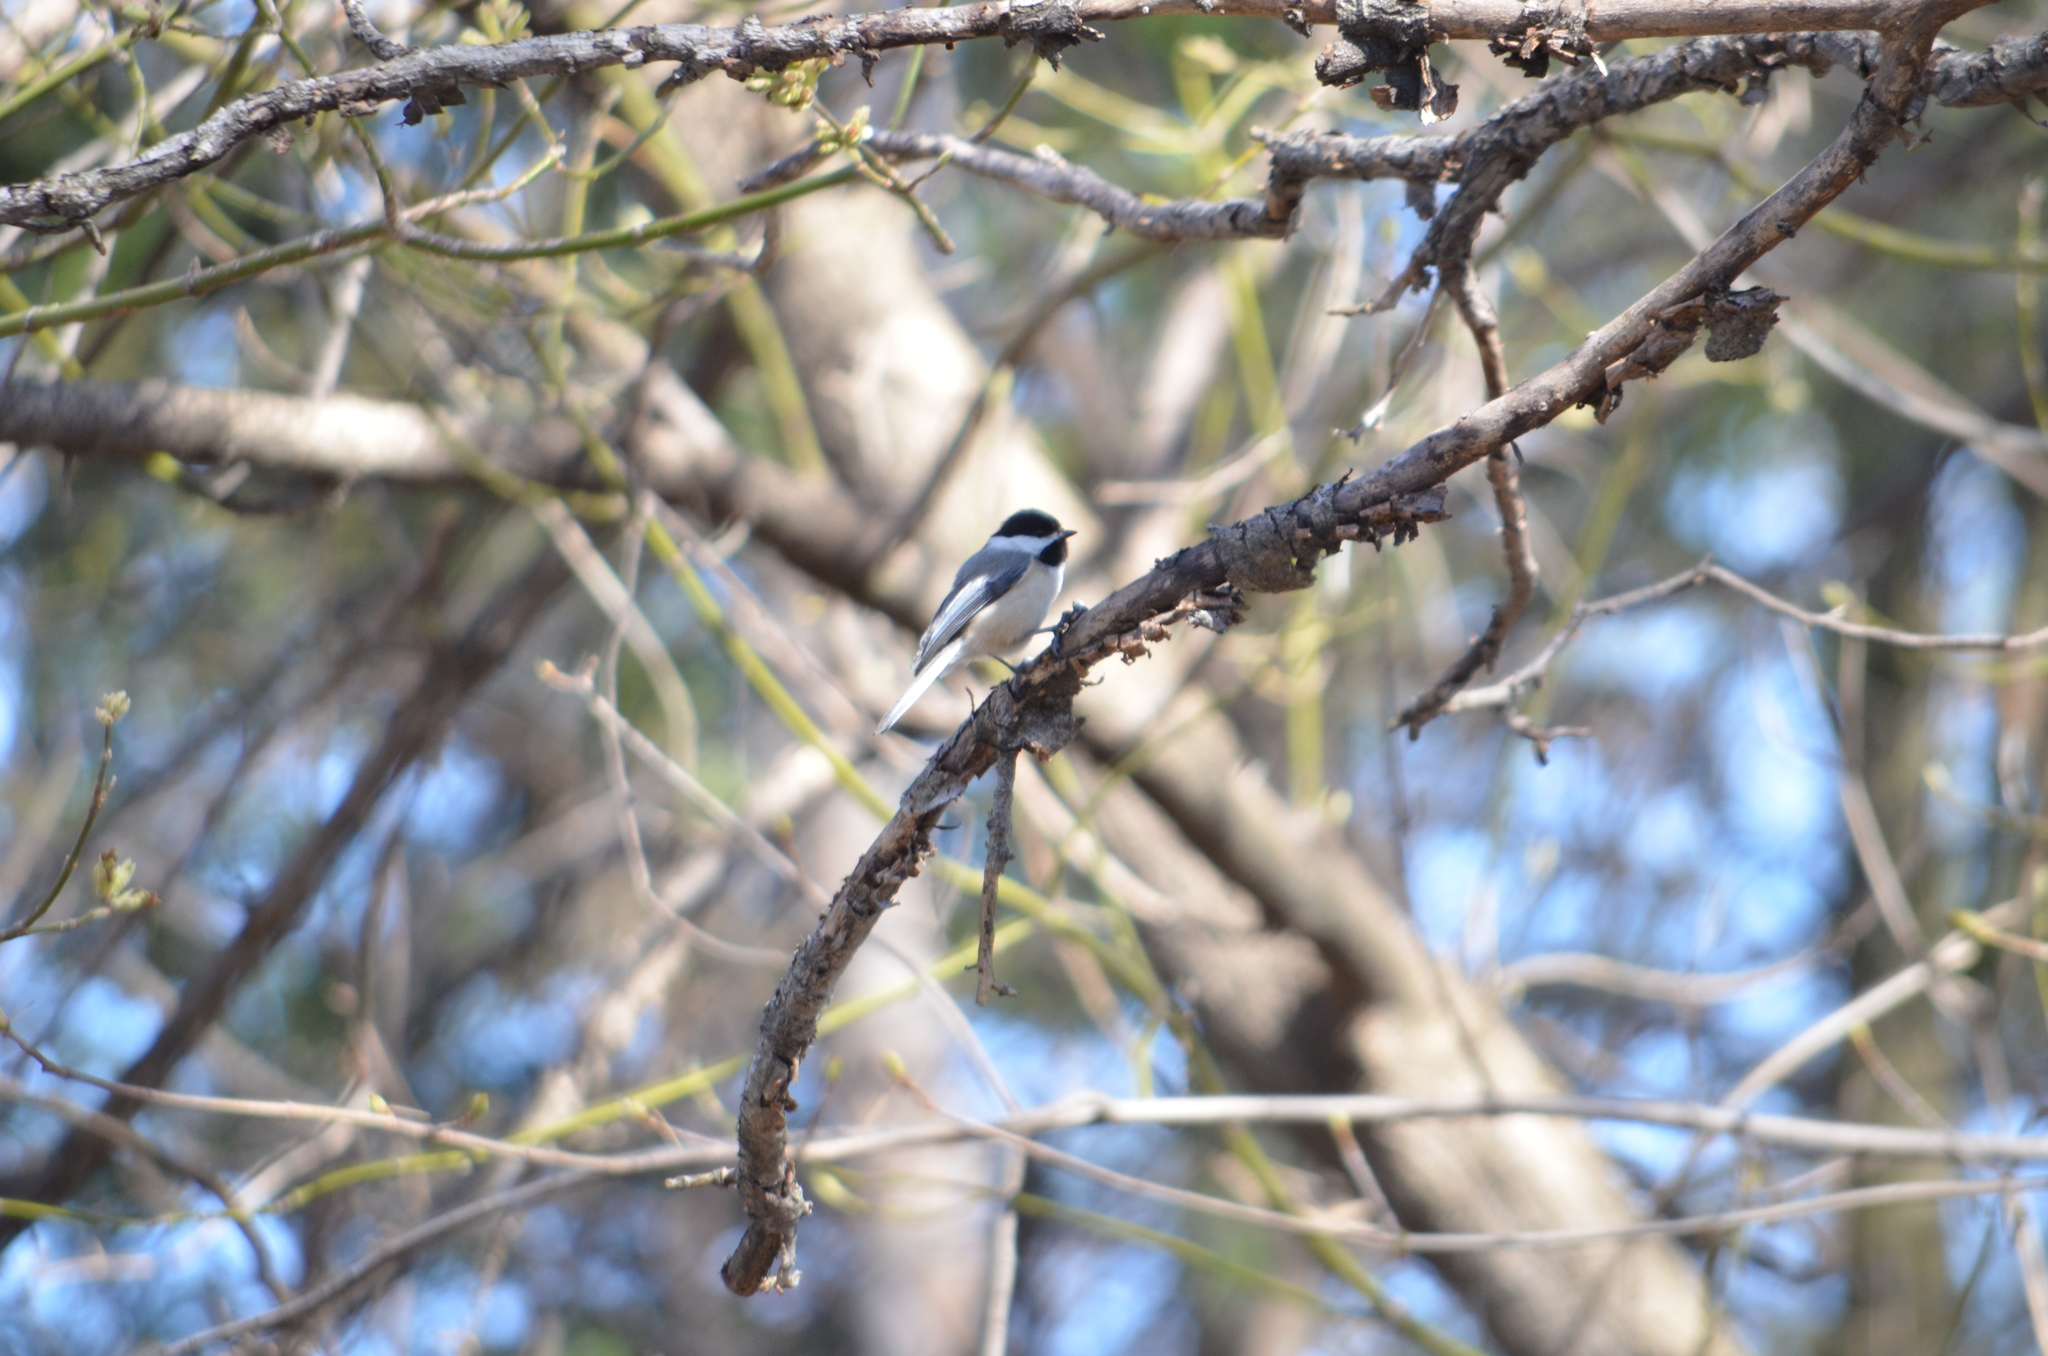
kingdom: Animalia
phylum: Chordata
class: Aves
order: Passeriformes
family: Paridae
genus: Poecile
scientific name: Poecile atricapillus
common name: Black-capped chickadee
